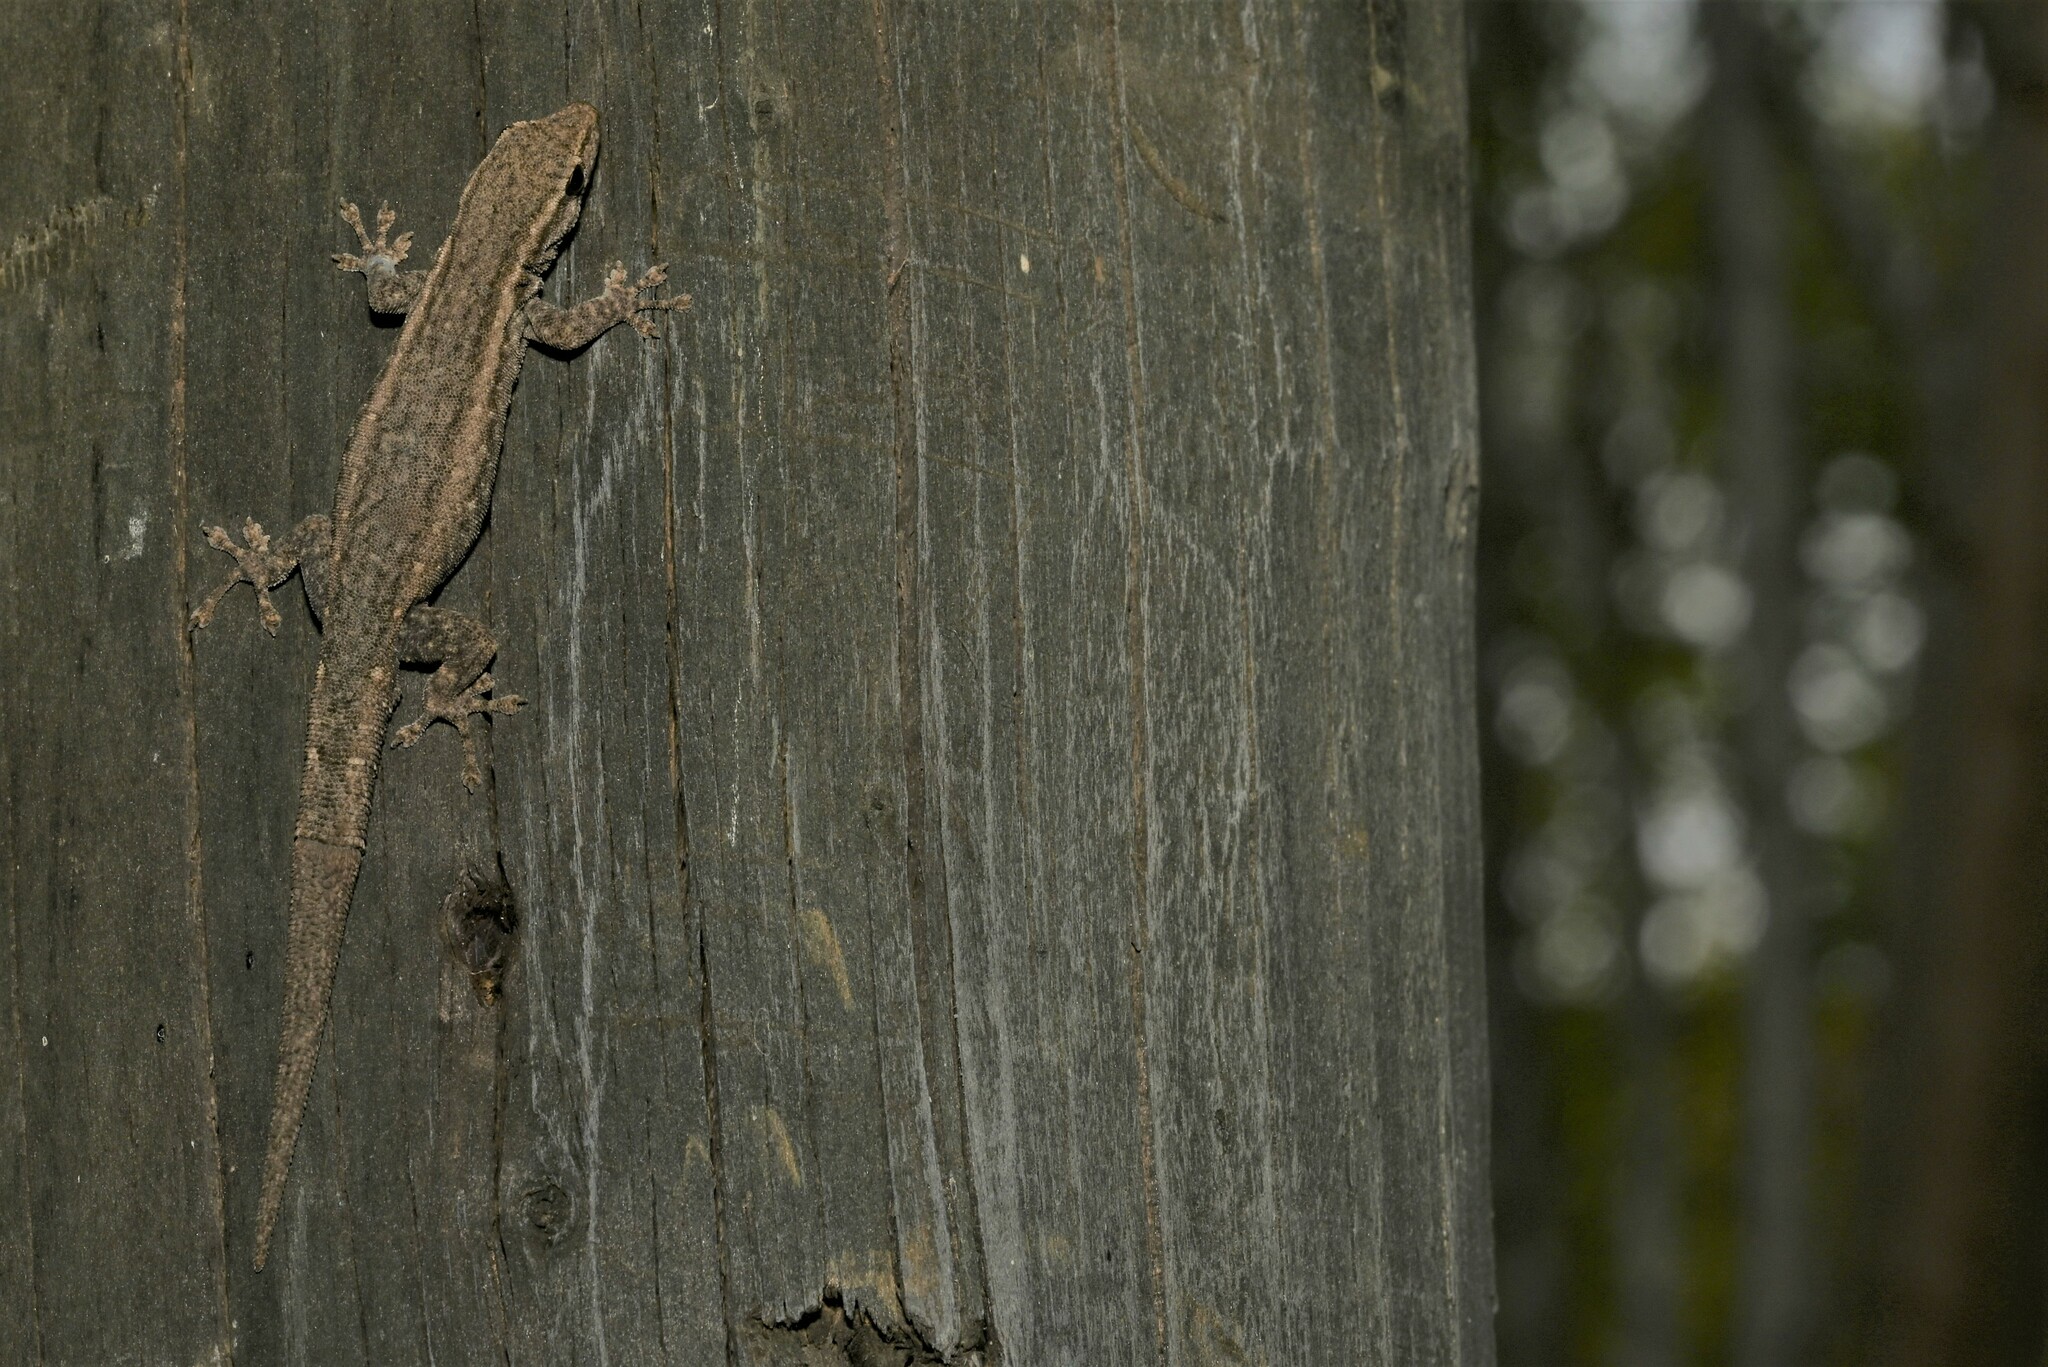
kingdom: Animalia
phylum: Chordata
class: Squamata
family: Gekkonidae
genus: Lygodactylus
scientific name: Lygodactylus capensis
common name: Cape dwarf gecko
